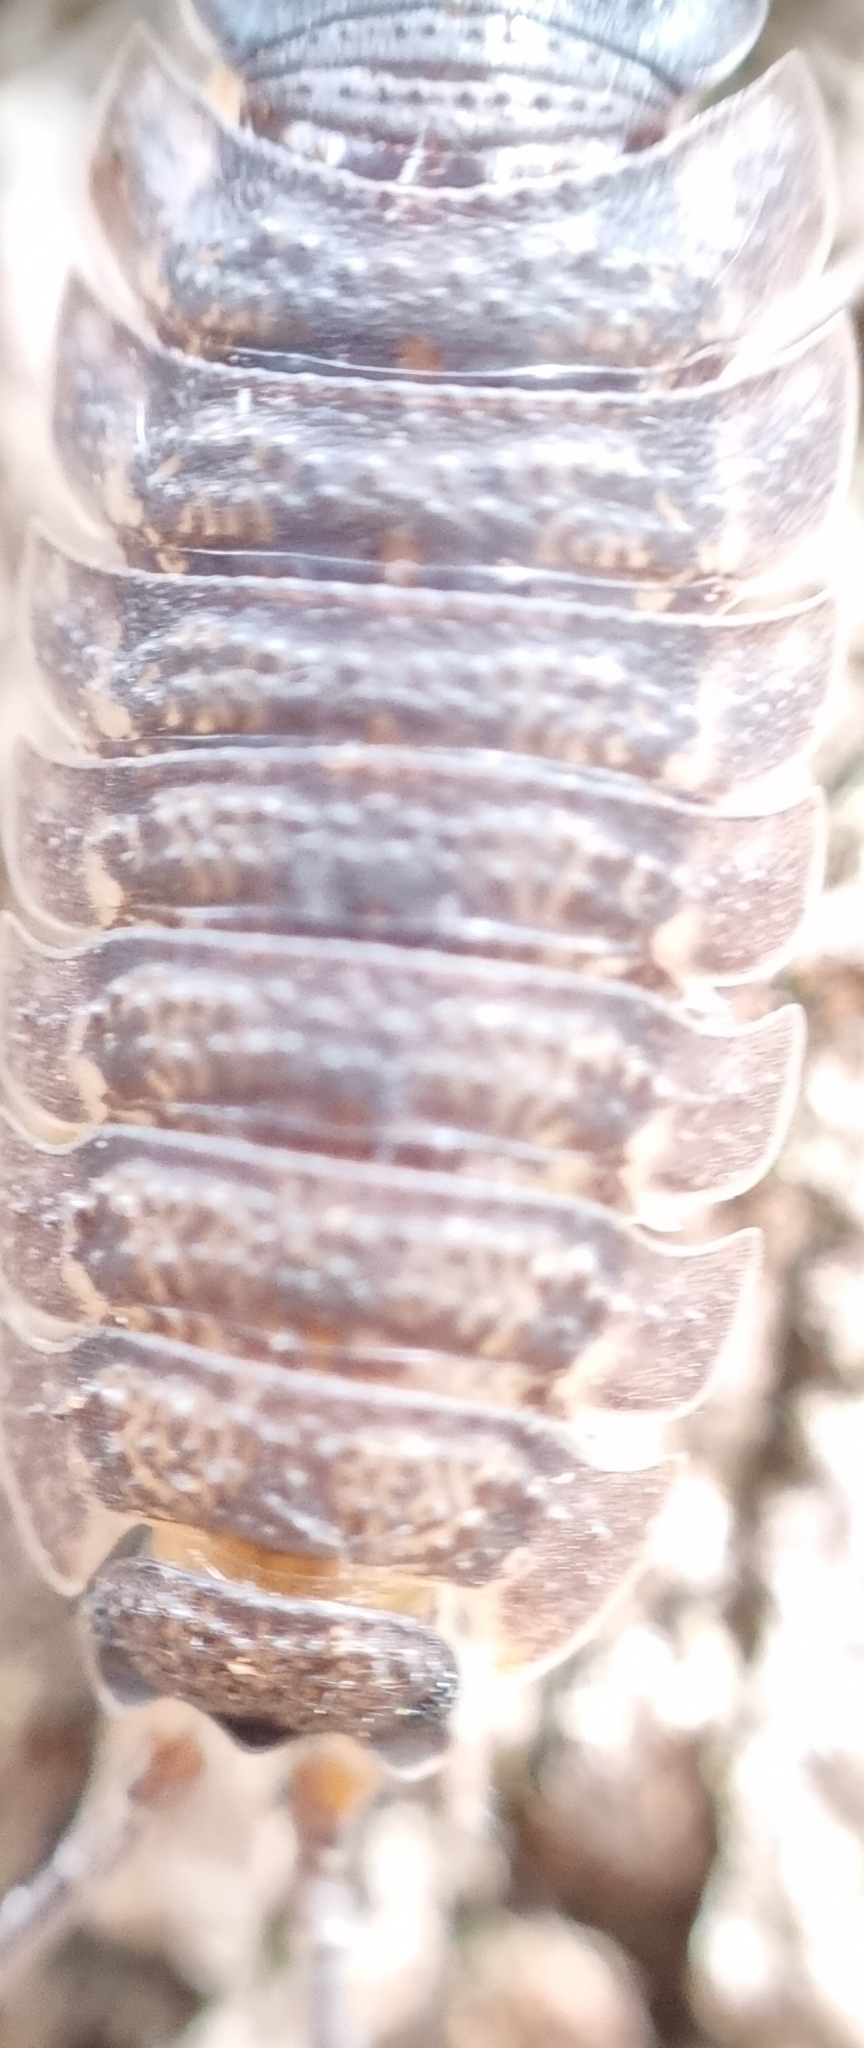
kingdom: Animalia
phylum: Arthropoda
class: Malacostraca
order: Isopoda
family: Porcellionidae
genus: Porcellio
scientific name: Porcellio scaber
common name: Common rough woodlouse
